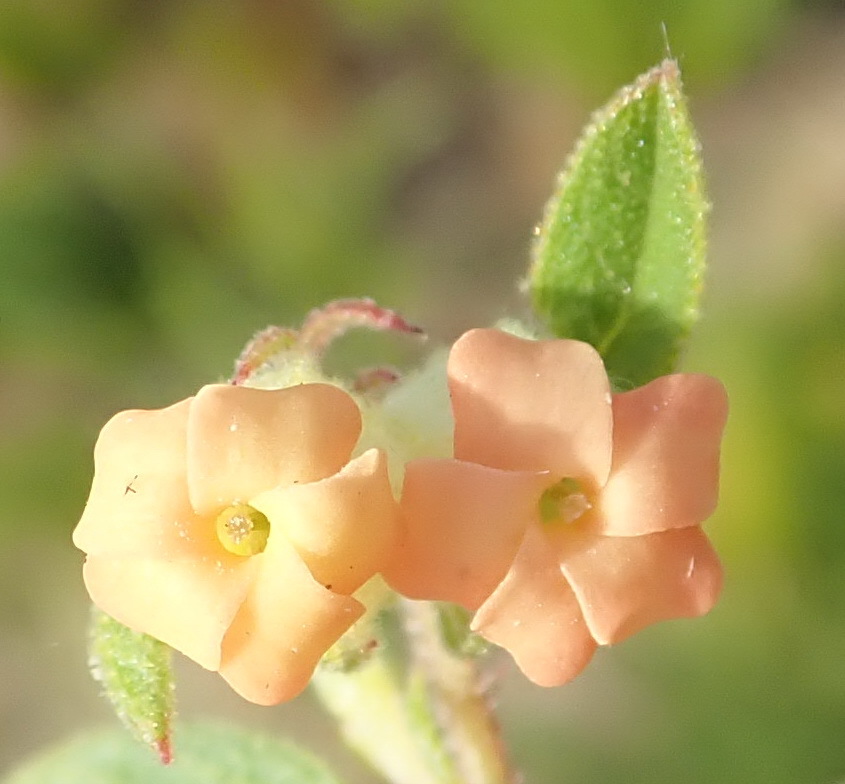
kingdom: Plantae
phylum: Tracheophyta
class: Magnoliopsida
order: Malvales
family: Malvaceae
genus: Hermannia
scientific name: Hermannia salviifolia
